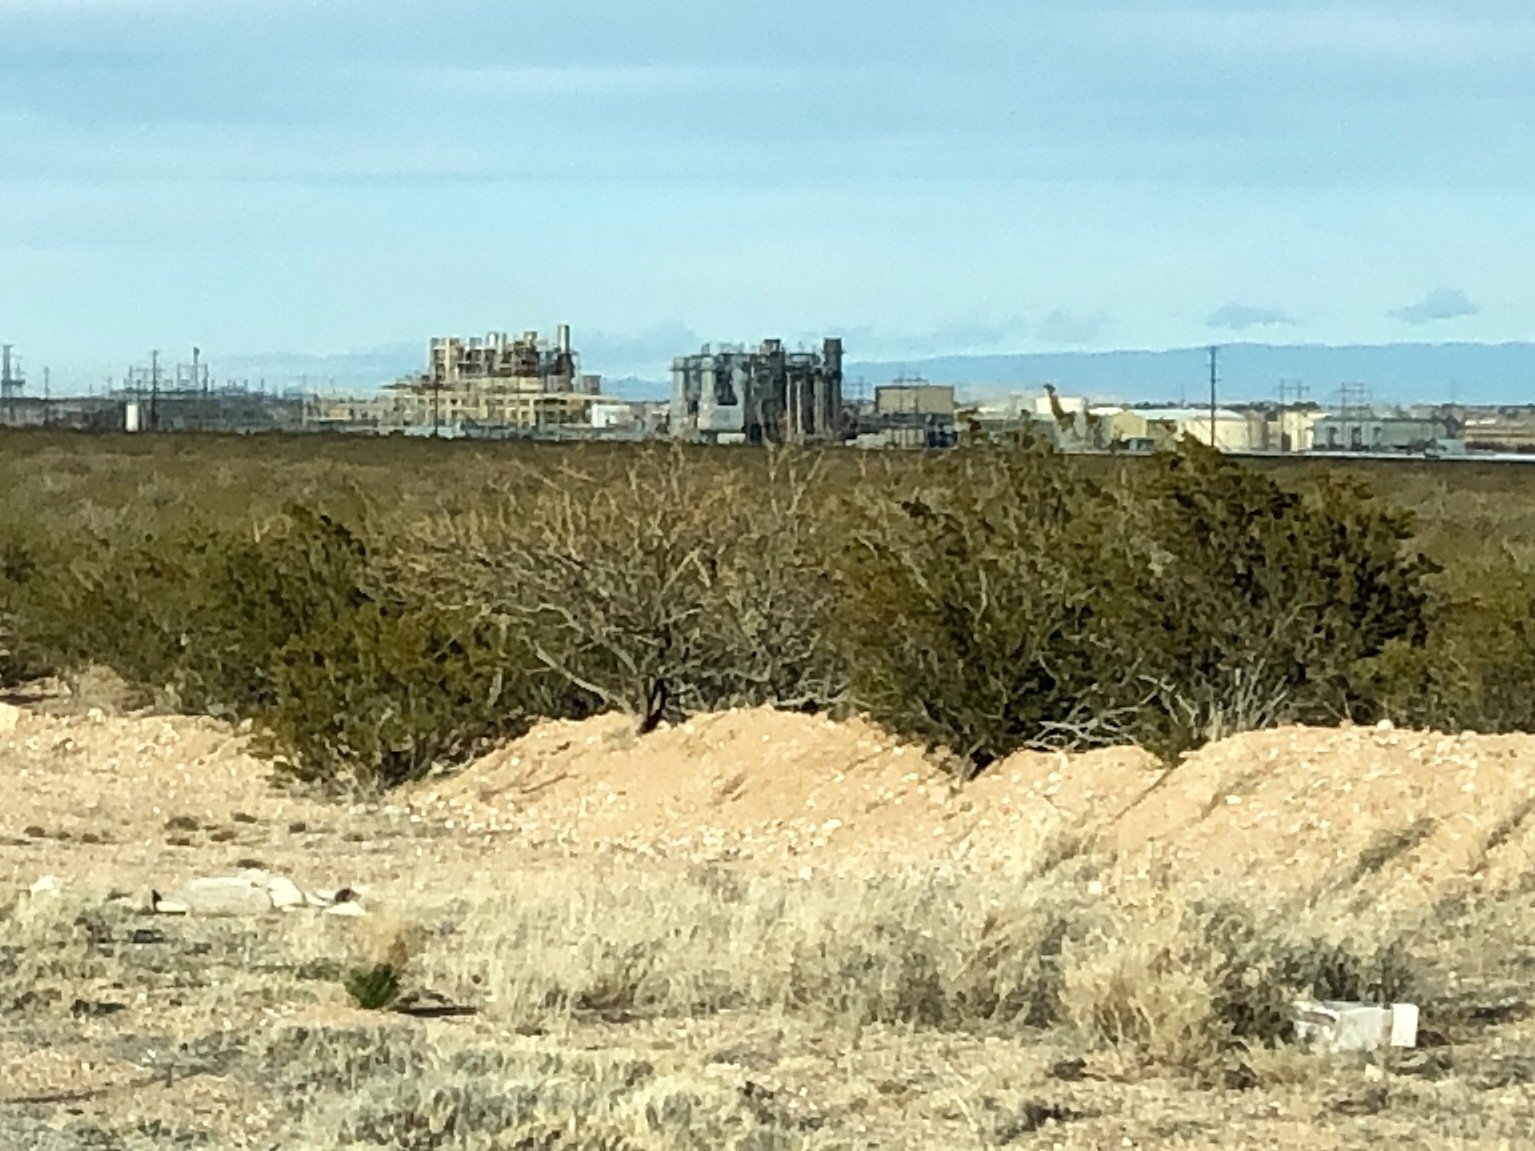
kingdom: Plantae
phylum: Tracheophyta
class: Magnoliopsida
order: Zygophyllales
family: Zygophyllaceae
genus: Larrea
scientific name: Larrea tridentata
